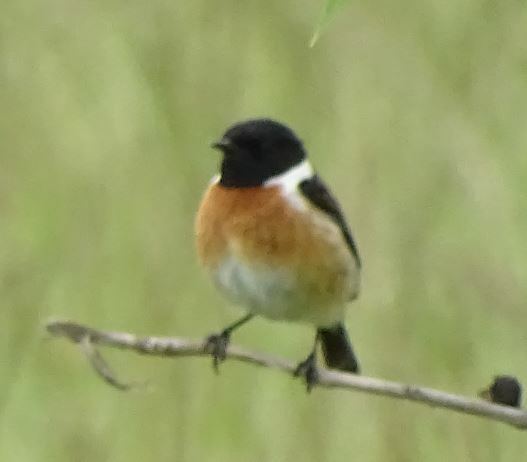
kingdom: Animalia
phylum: Chordata
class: Aves
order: Passeriformes
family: Muscicapidae
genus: Saxicola
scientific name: Saxicola rubicola
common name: European stonechat
